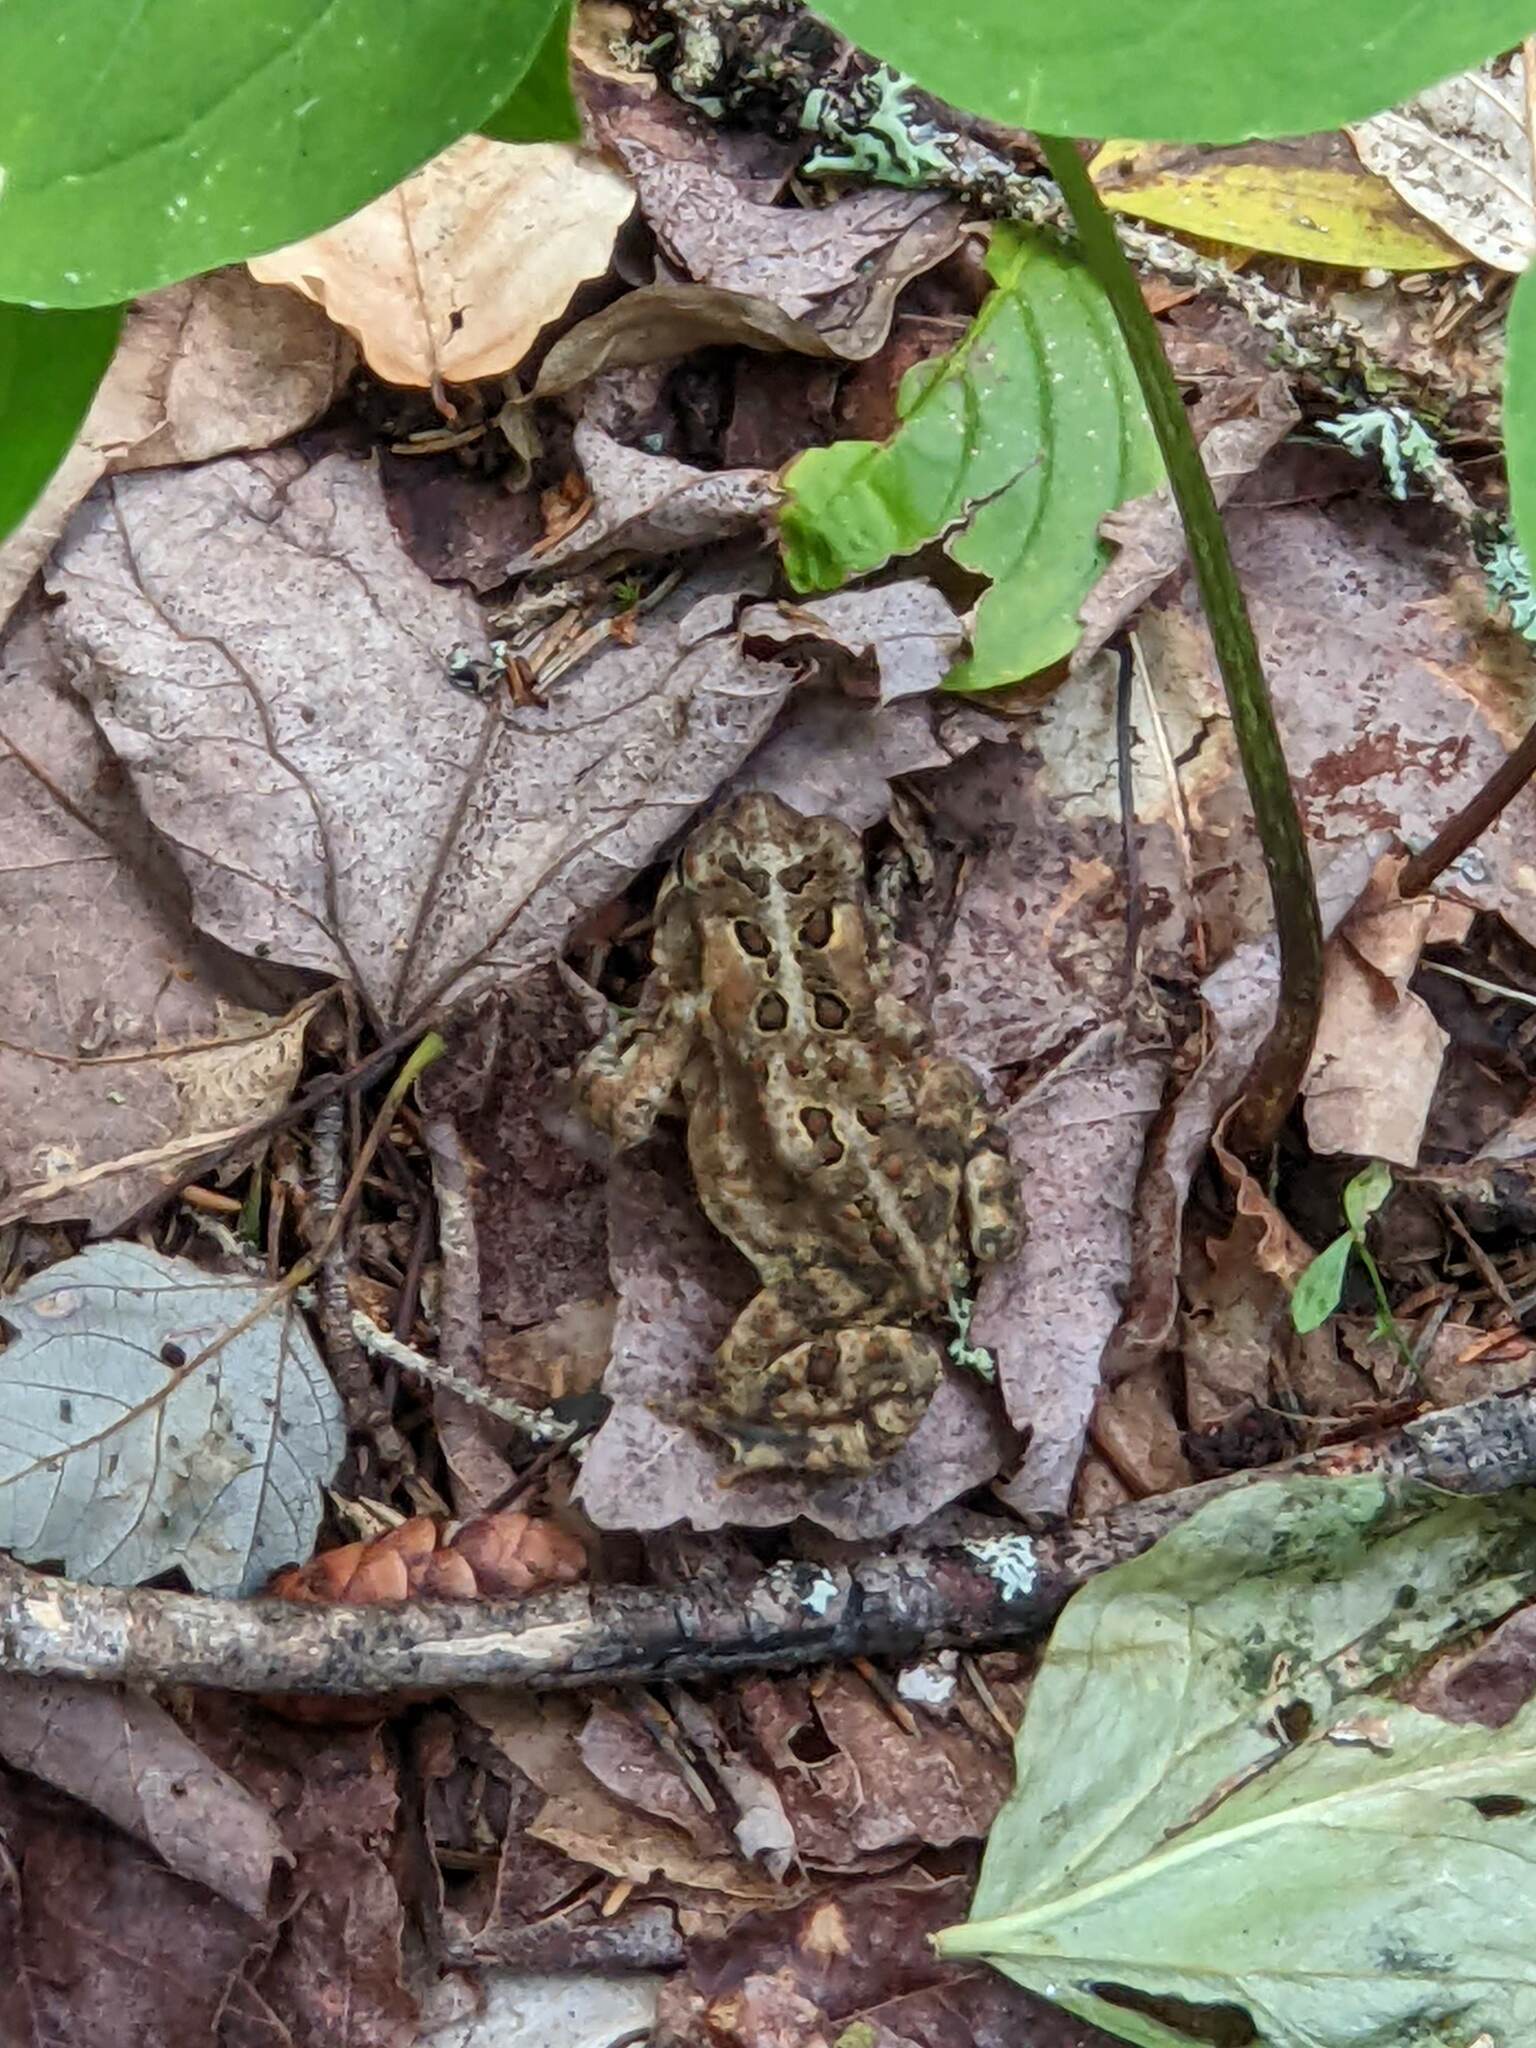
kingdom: Animalia
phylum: Chordata
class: Amphibia
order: Anura
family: Bufonidae
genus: Anaxyrus
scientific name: Anaxyrus americanus
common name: American toad
